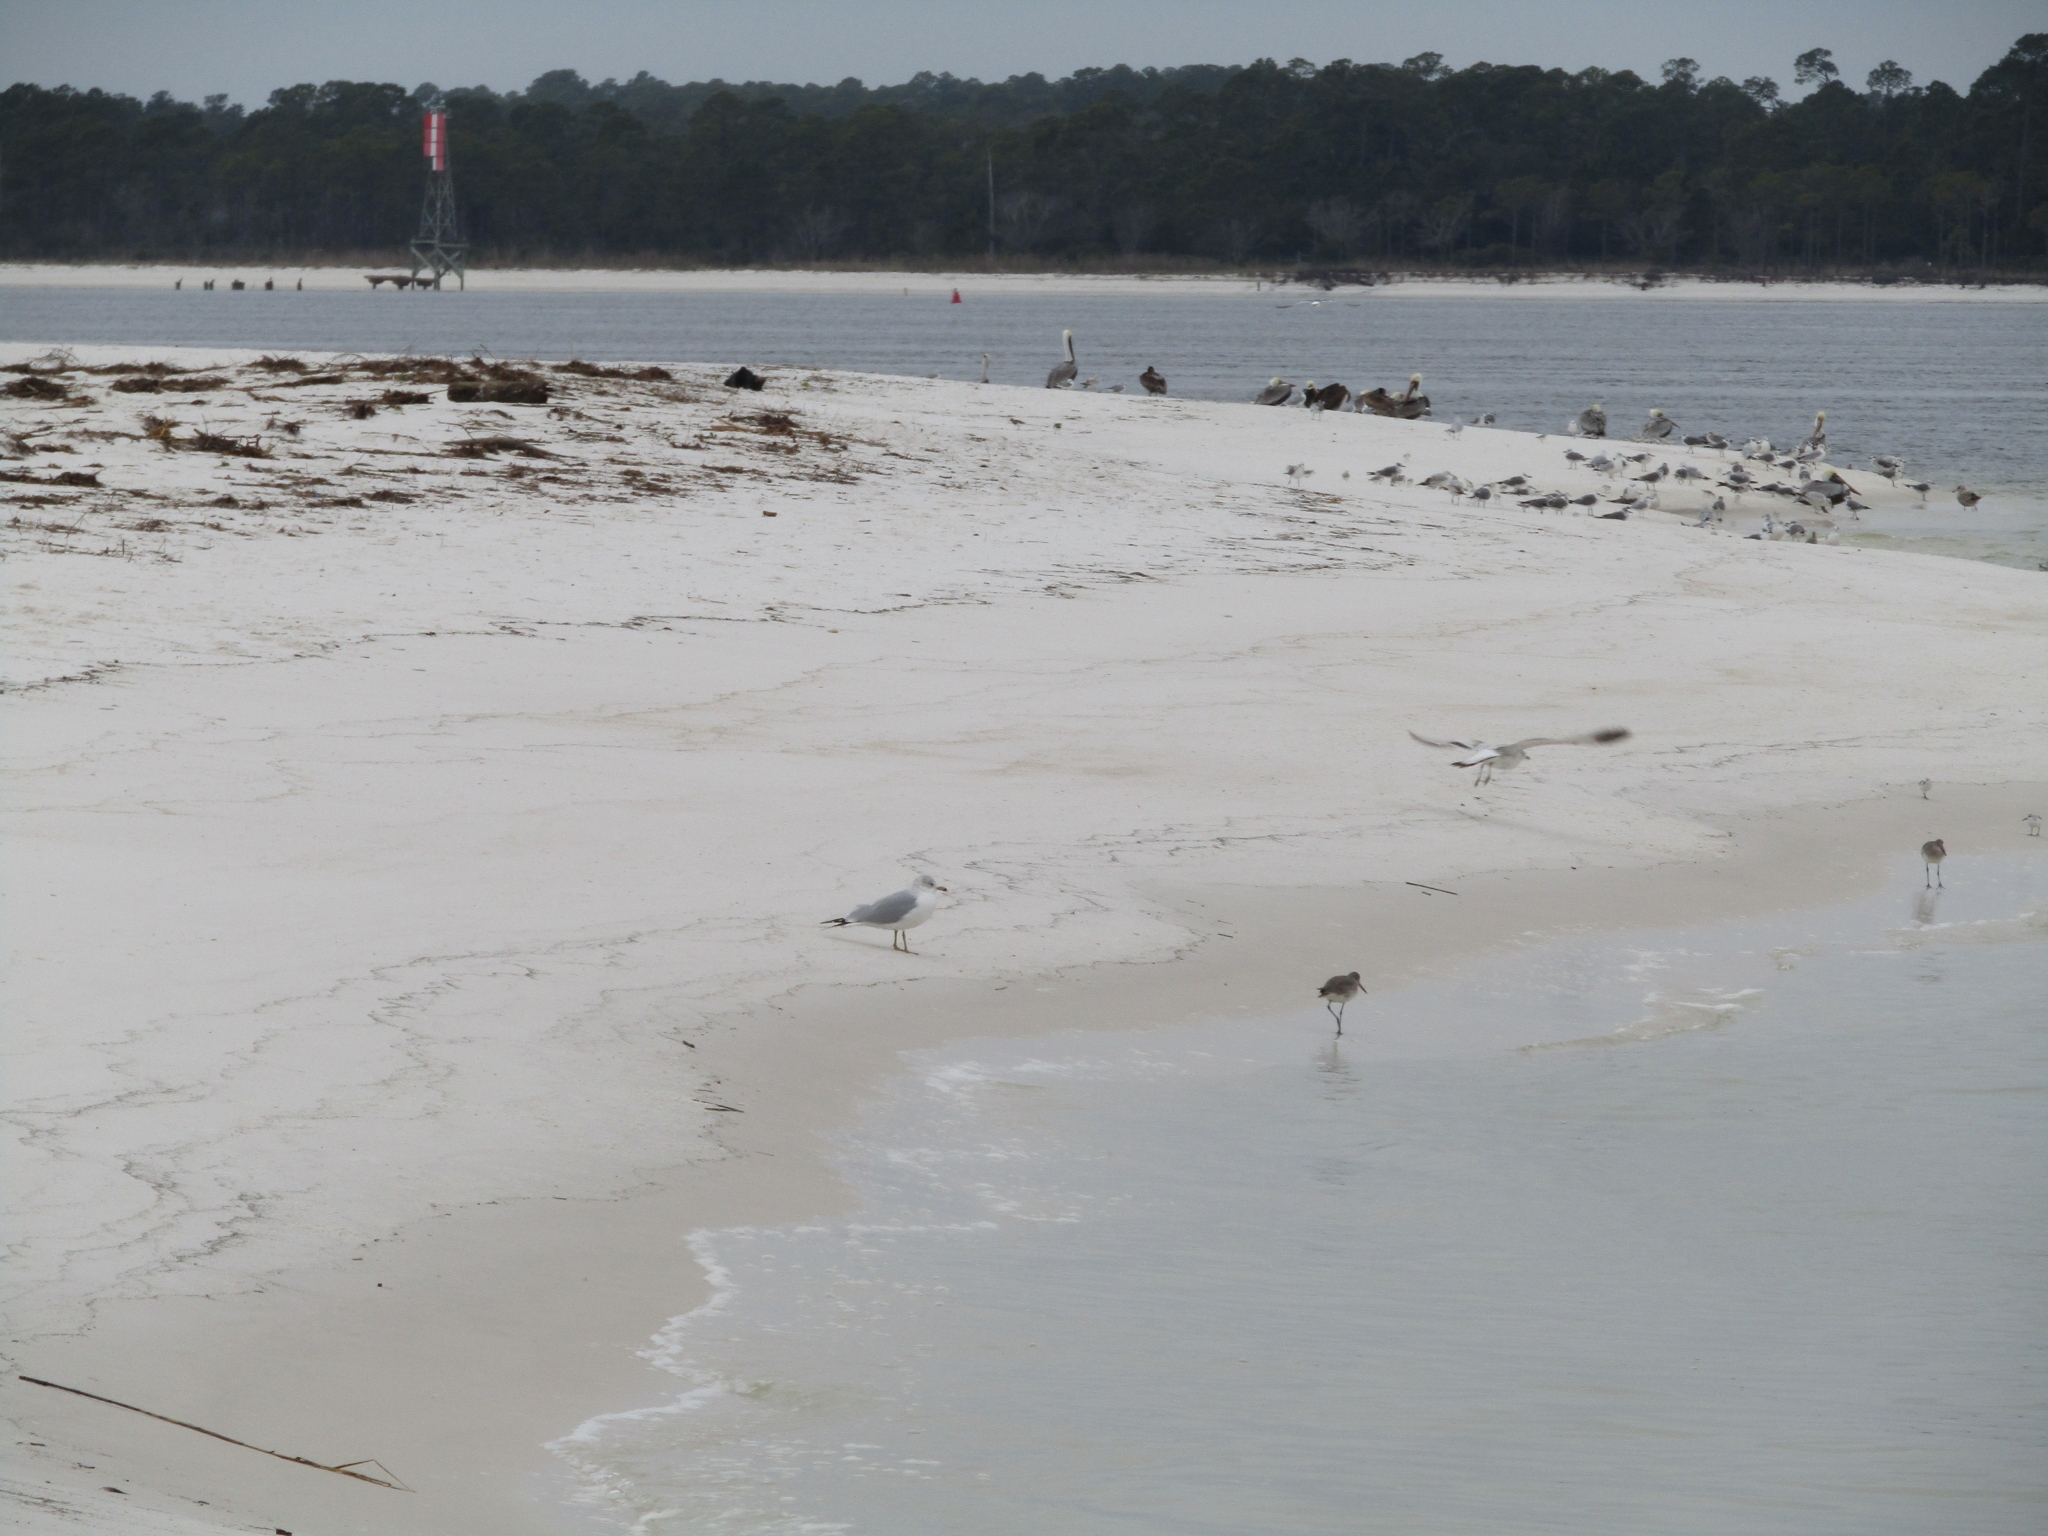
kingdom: Animalia
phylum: Chordata
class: Aves
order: Charadriiformes
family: Laridae
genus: Larus
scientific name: Larus delawarensis
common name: Ring-billed gull
